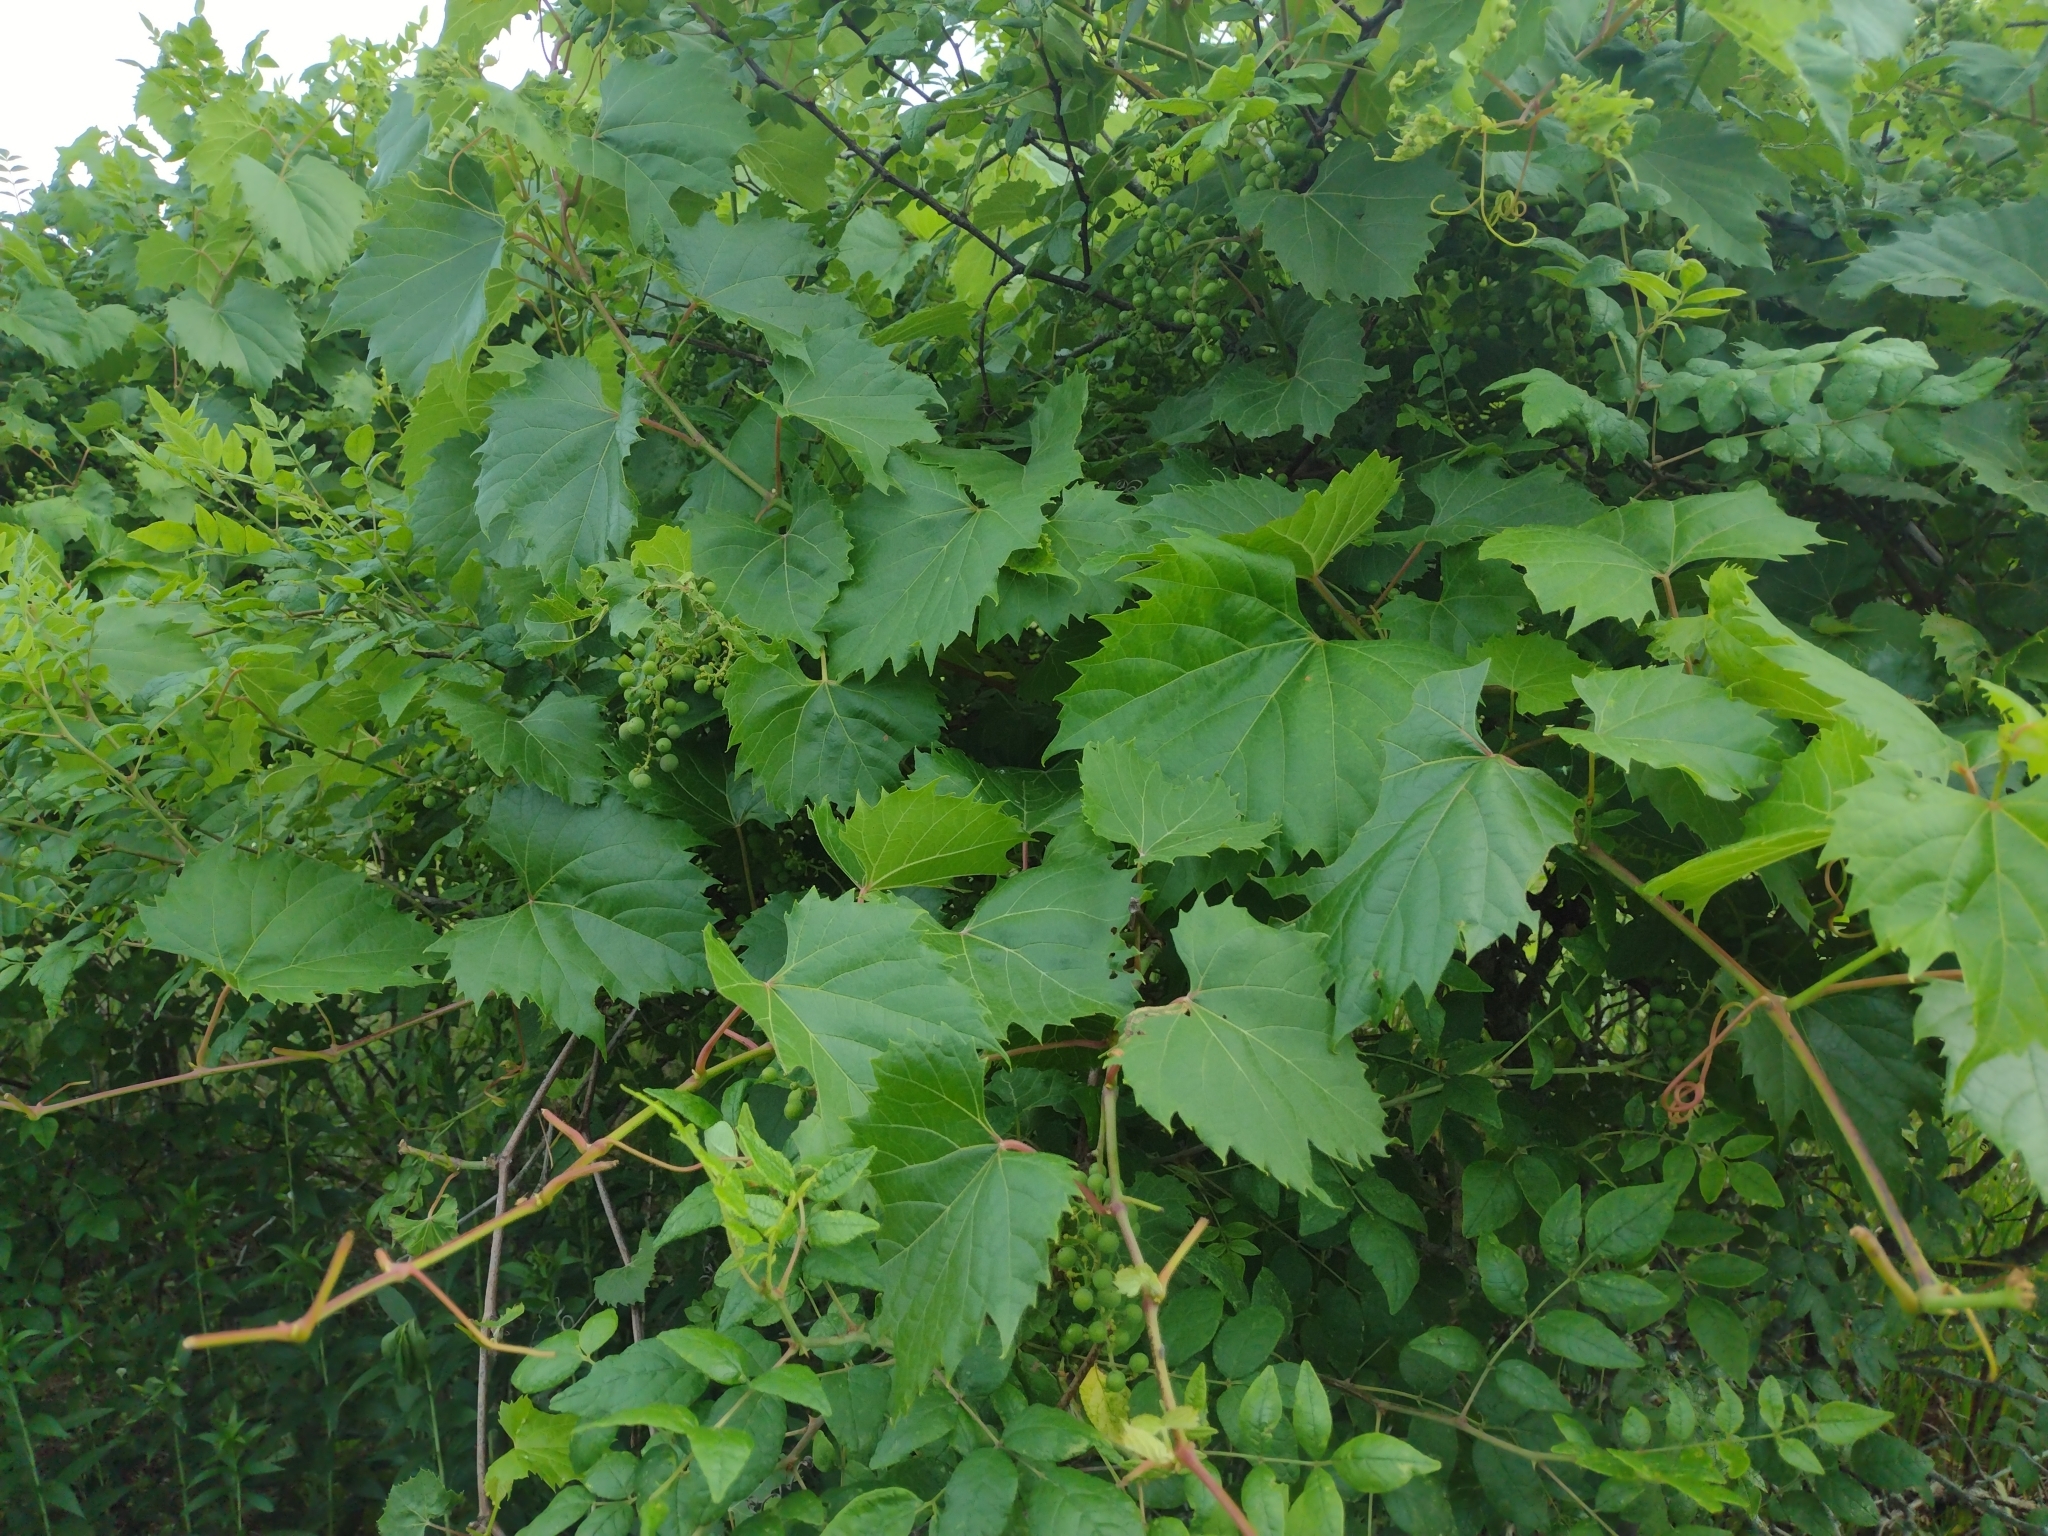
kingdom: Plantae
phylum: Tracheophyta
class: Magnoliopsida
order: Vitales
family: Vitaceae
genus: Vitis
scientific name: Vitis riparia
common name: Frost grape
